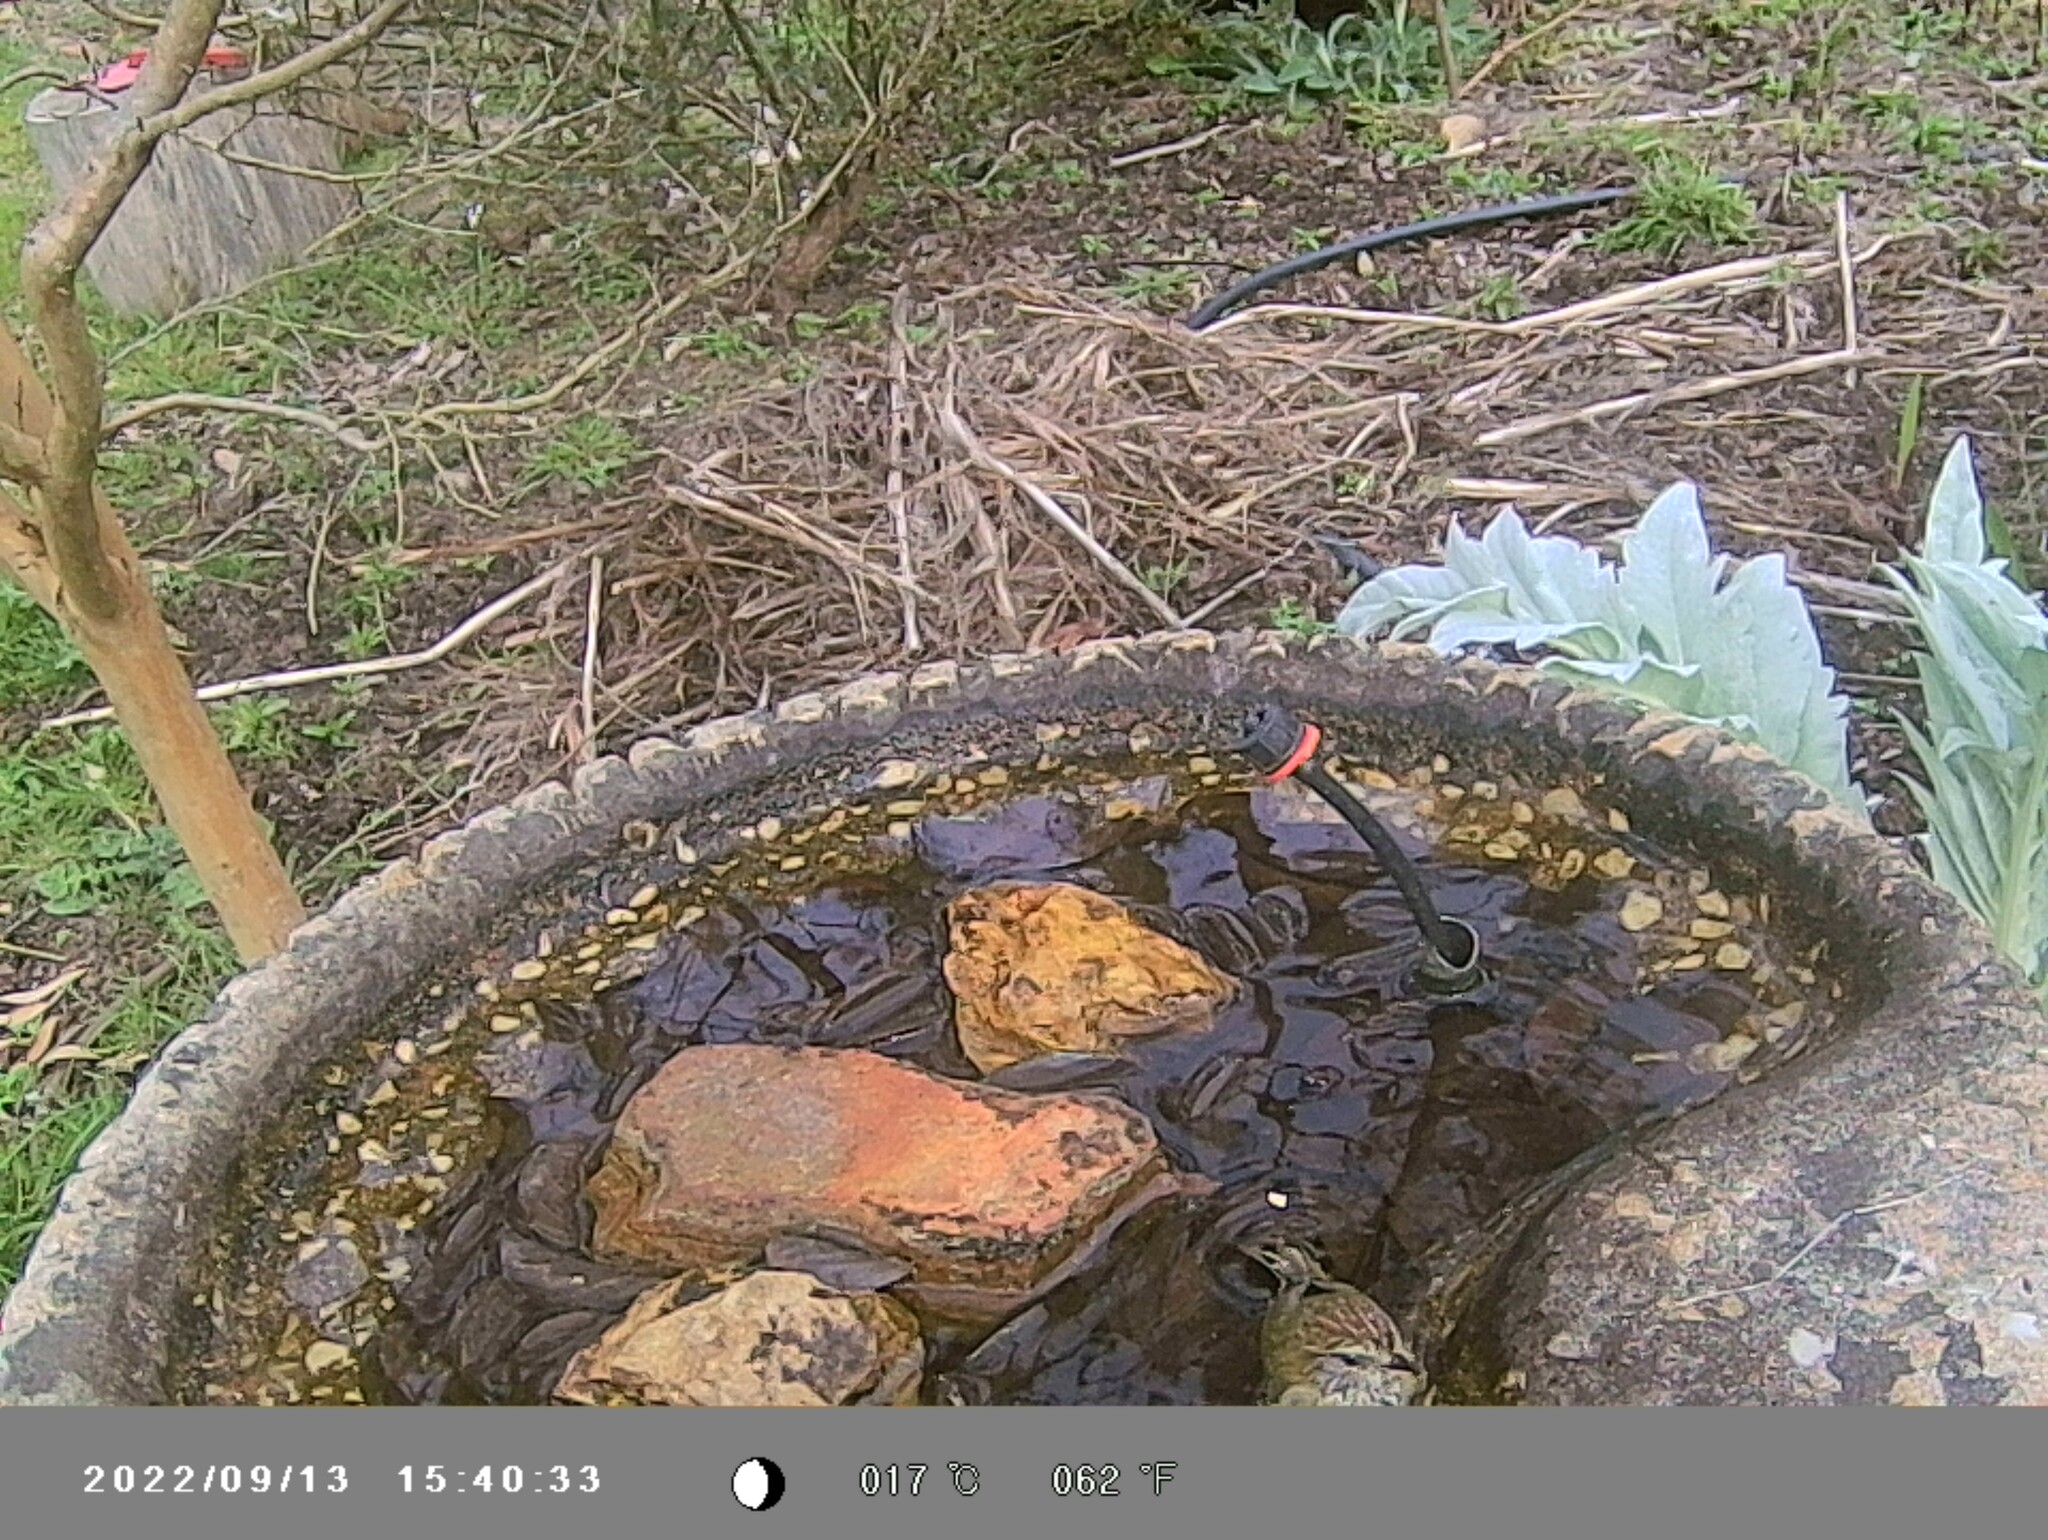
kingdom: Animalia
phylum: Chordata
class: Aves
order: Passeriformes
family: Acanthizidae
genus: Acanthiza
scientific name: Acanthiza lineata
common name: Striated thornbill
